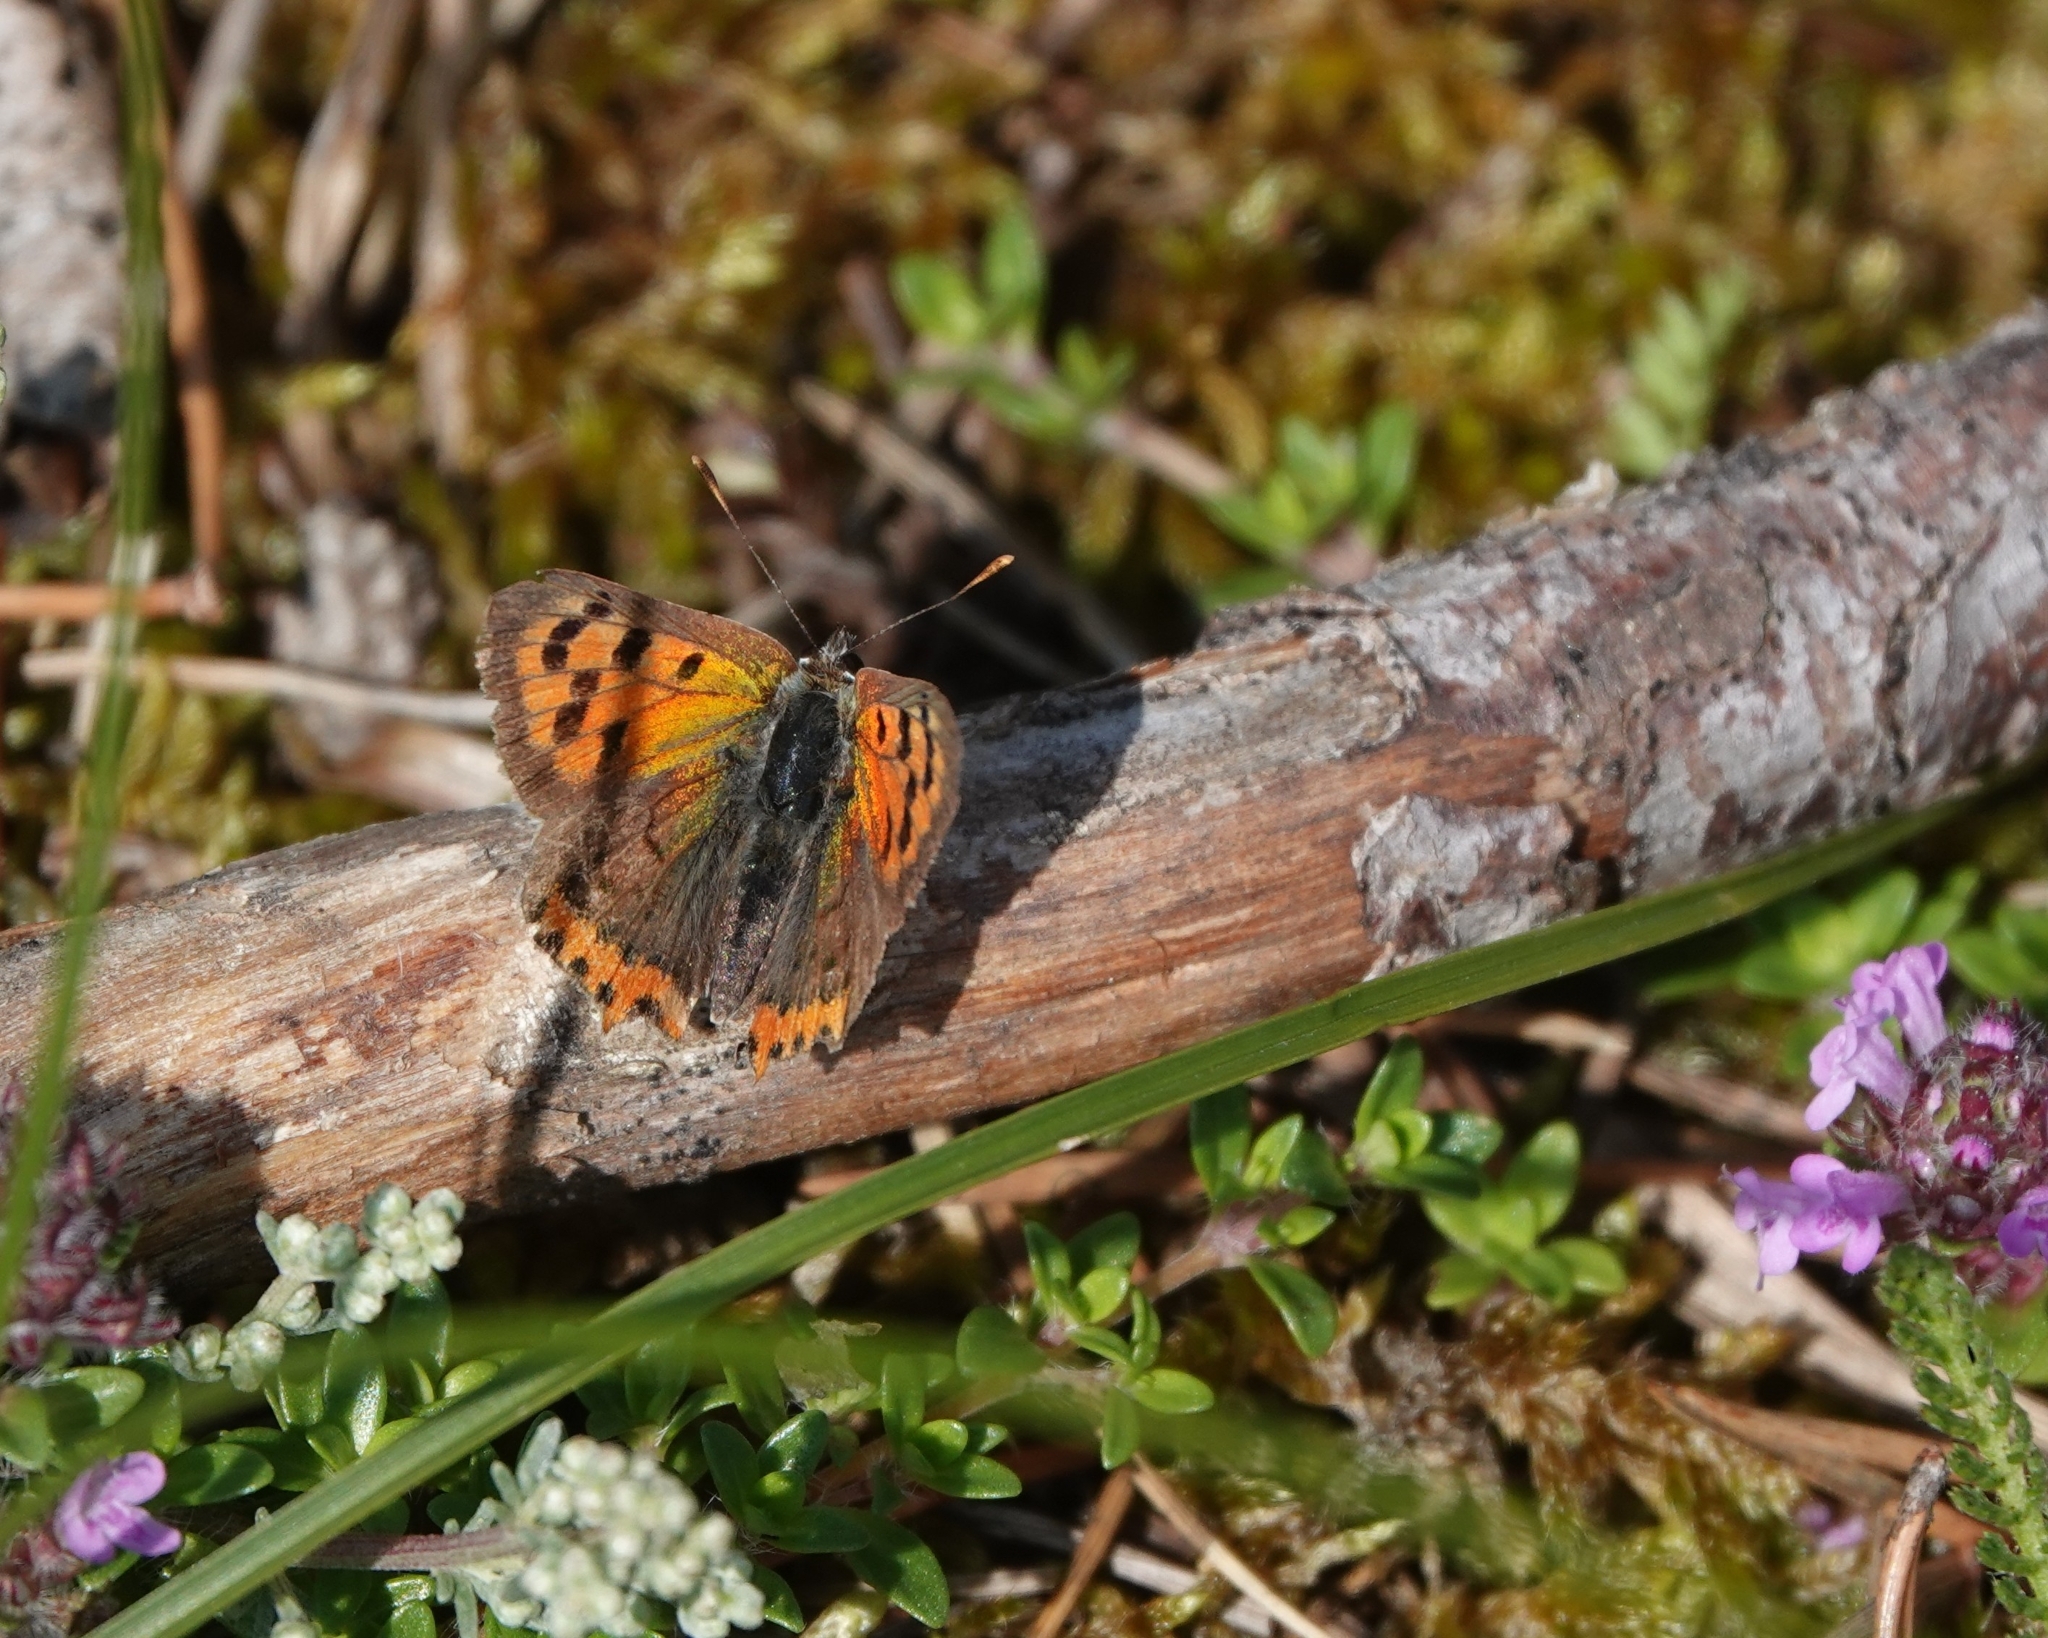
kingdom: Animalia
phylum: Arthropoda
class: Insecta
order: Lepidoptera
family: Lycaenidae
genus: Lycaena
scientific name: Lycaena phlaeas
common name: Small copper
